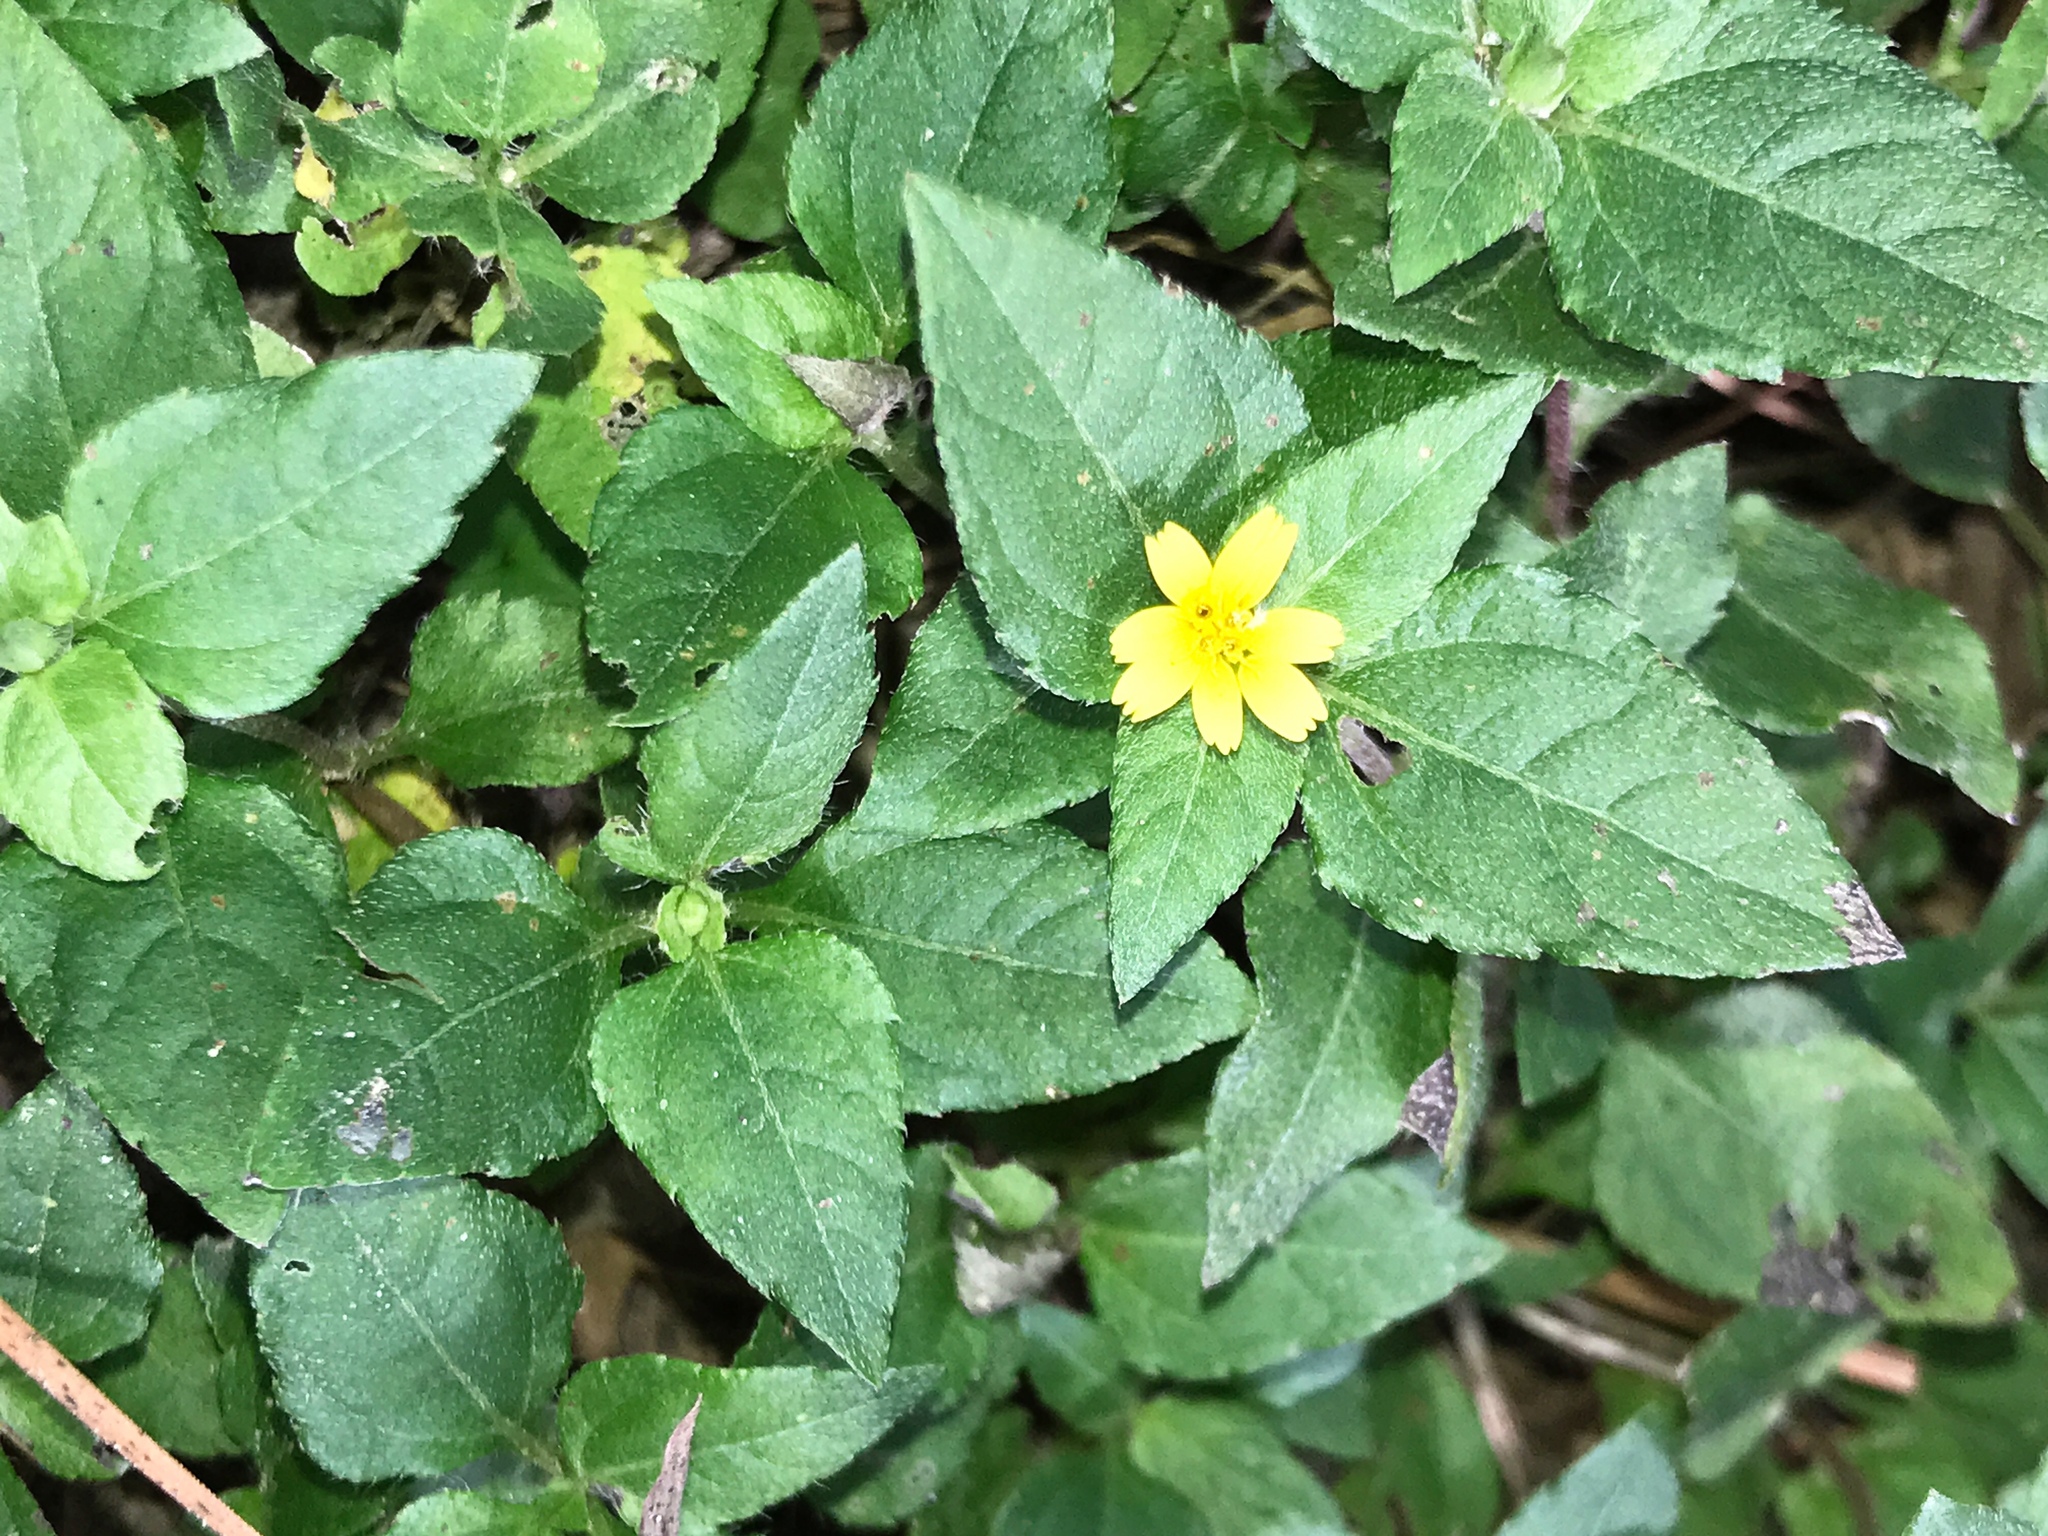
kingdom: Plantae
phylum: Tracheophyta
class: Magnoliopsida
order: Asterales
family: Asteraceae
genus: Calyptocarpus
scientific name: Calyptocarpus vialis
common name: Straggler daisy
